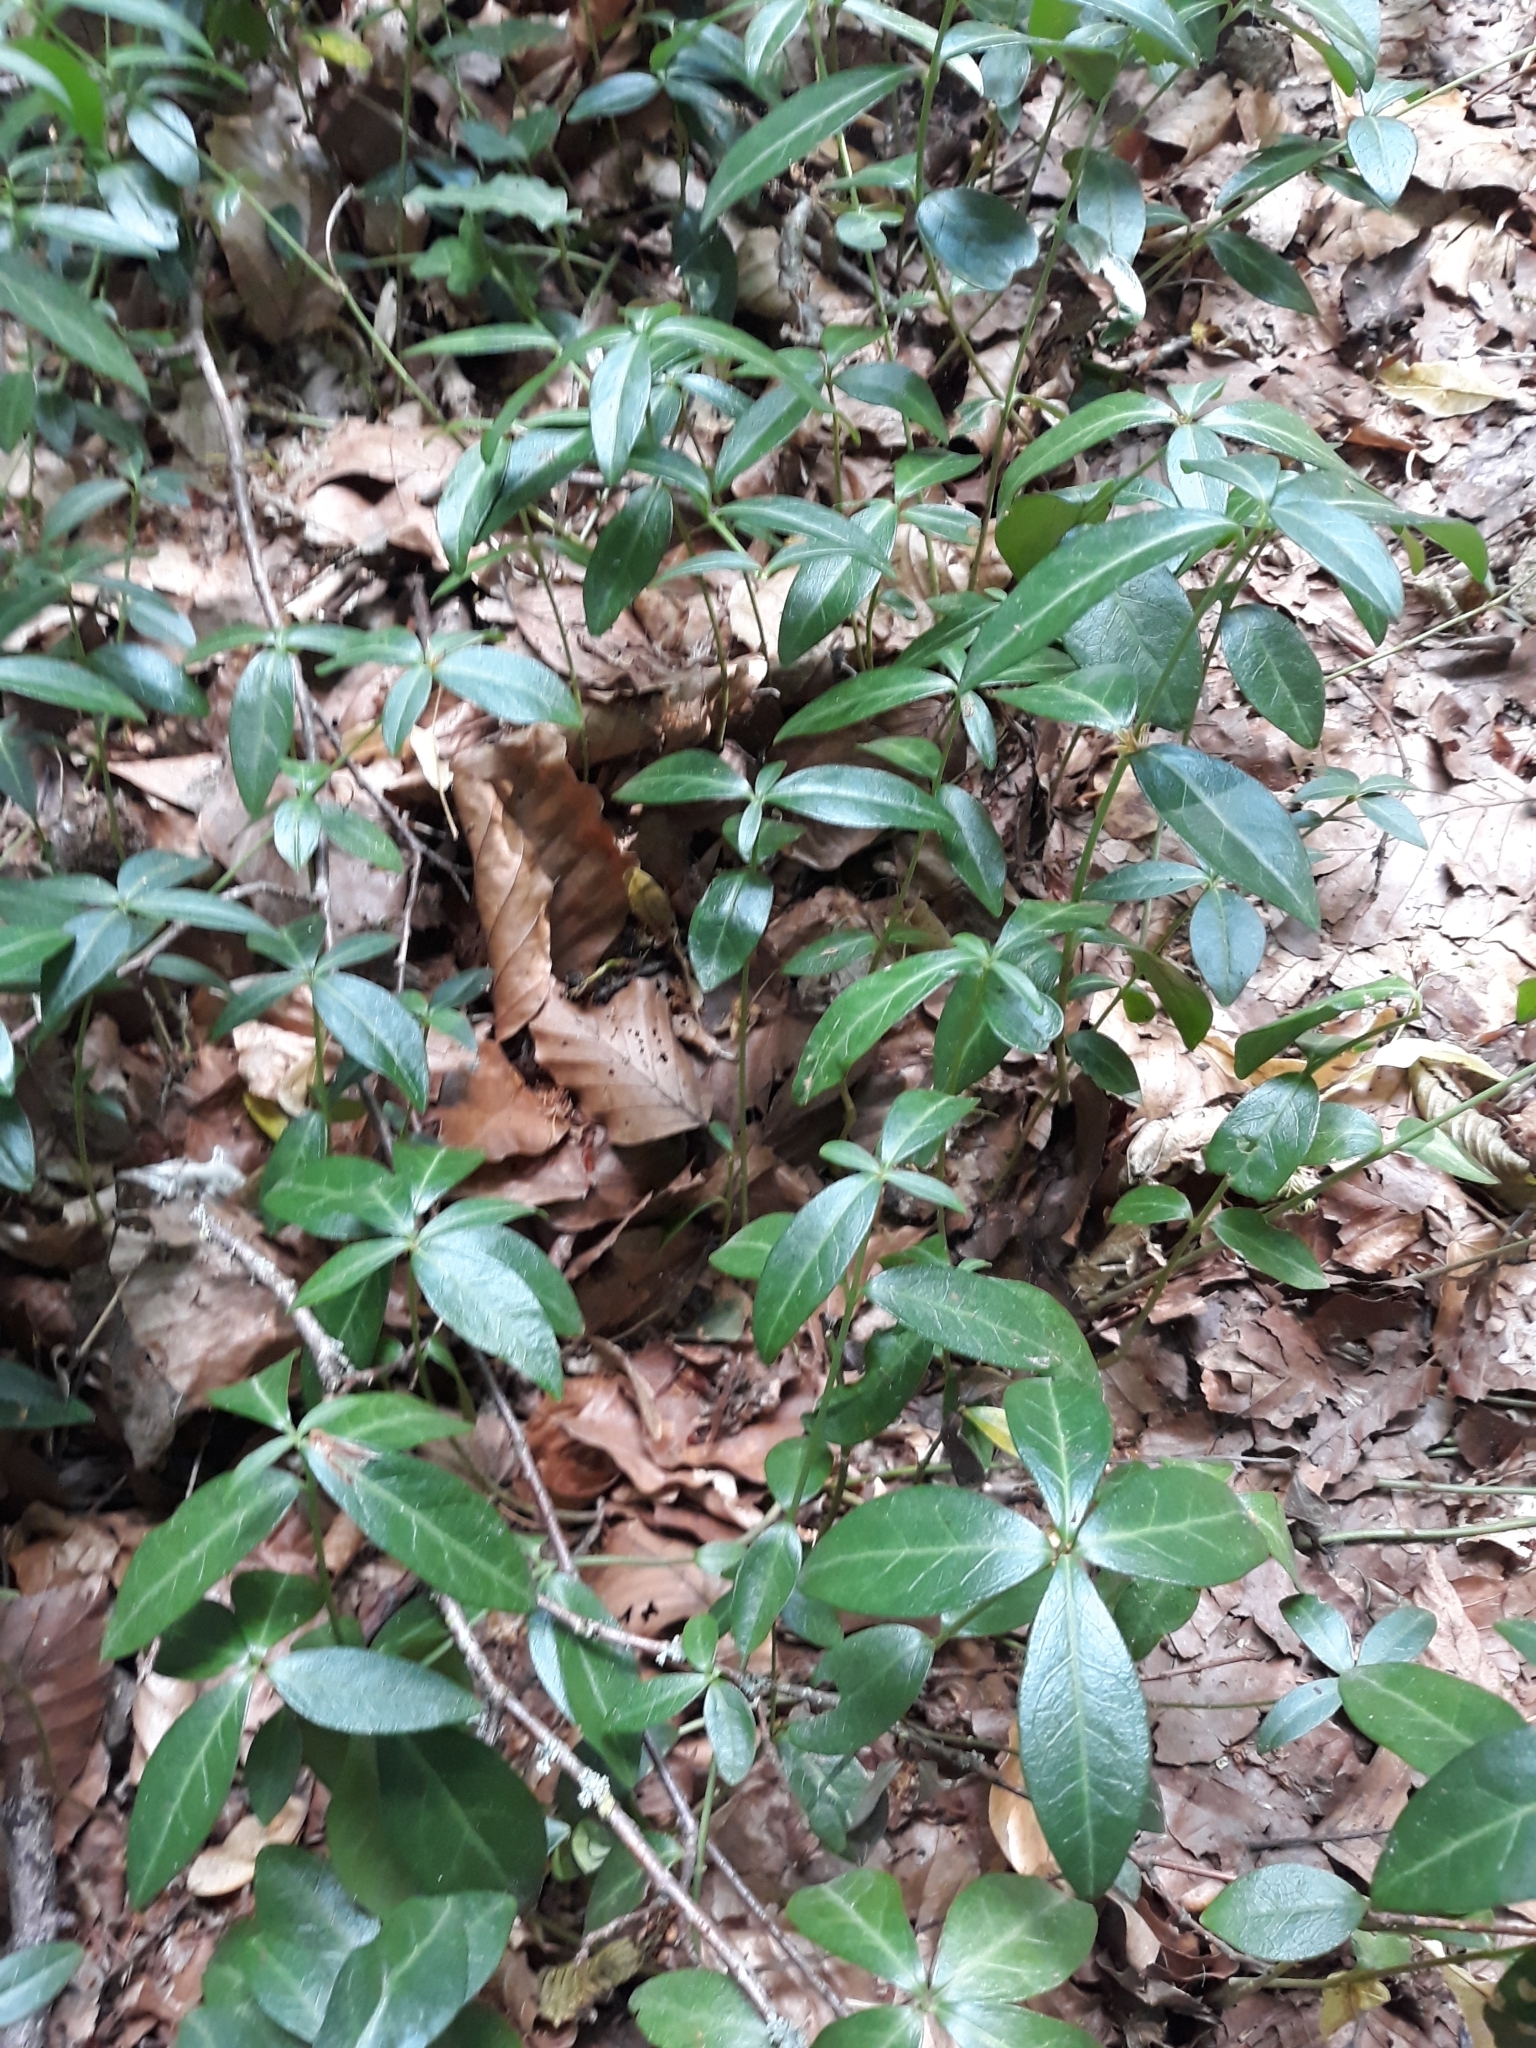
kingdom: Plantae
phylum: Tracheophyta
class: Magnoliopsida
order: Gentianales
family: Apocynaceae
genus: Vinca
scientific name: Vinca minor
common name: Lesser periwinkle
